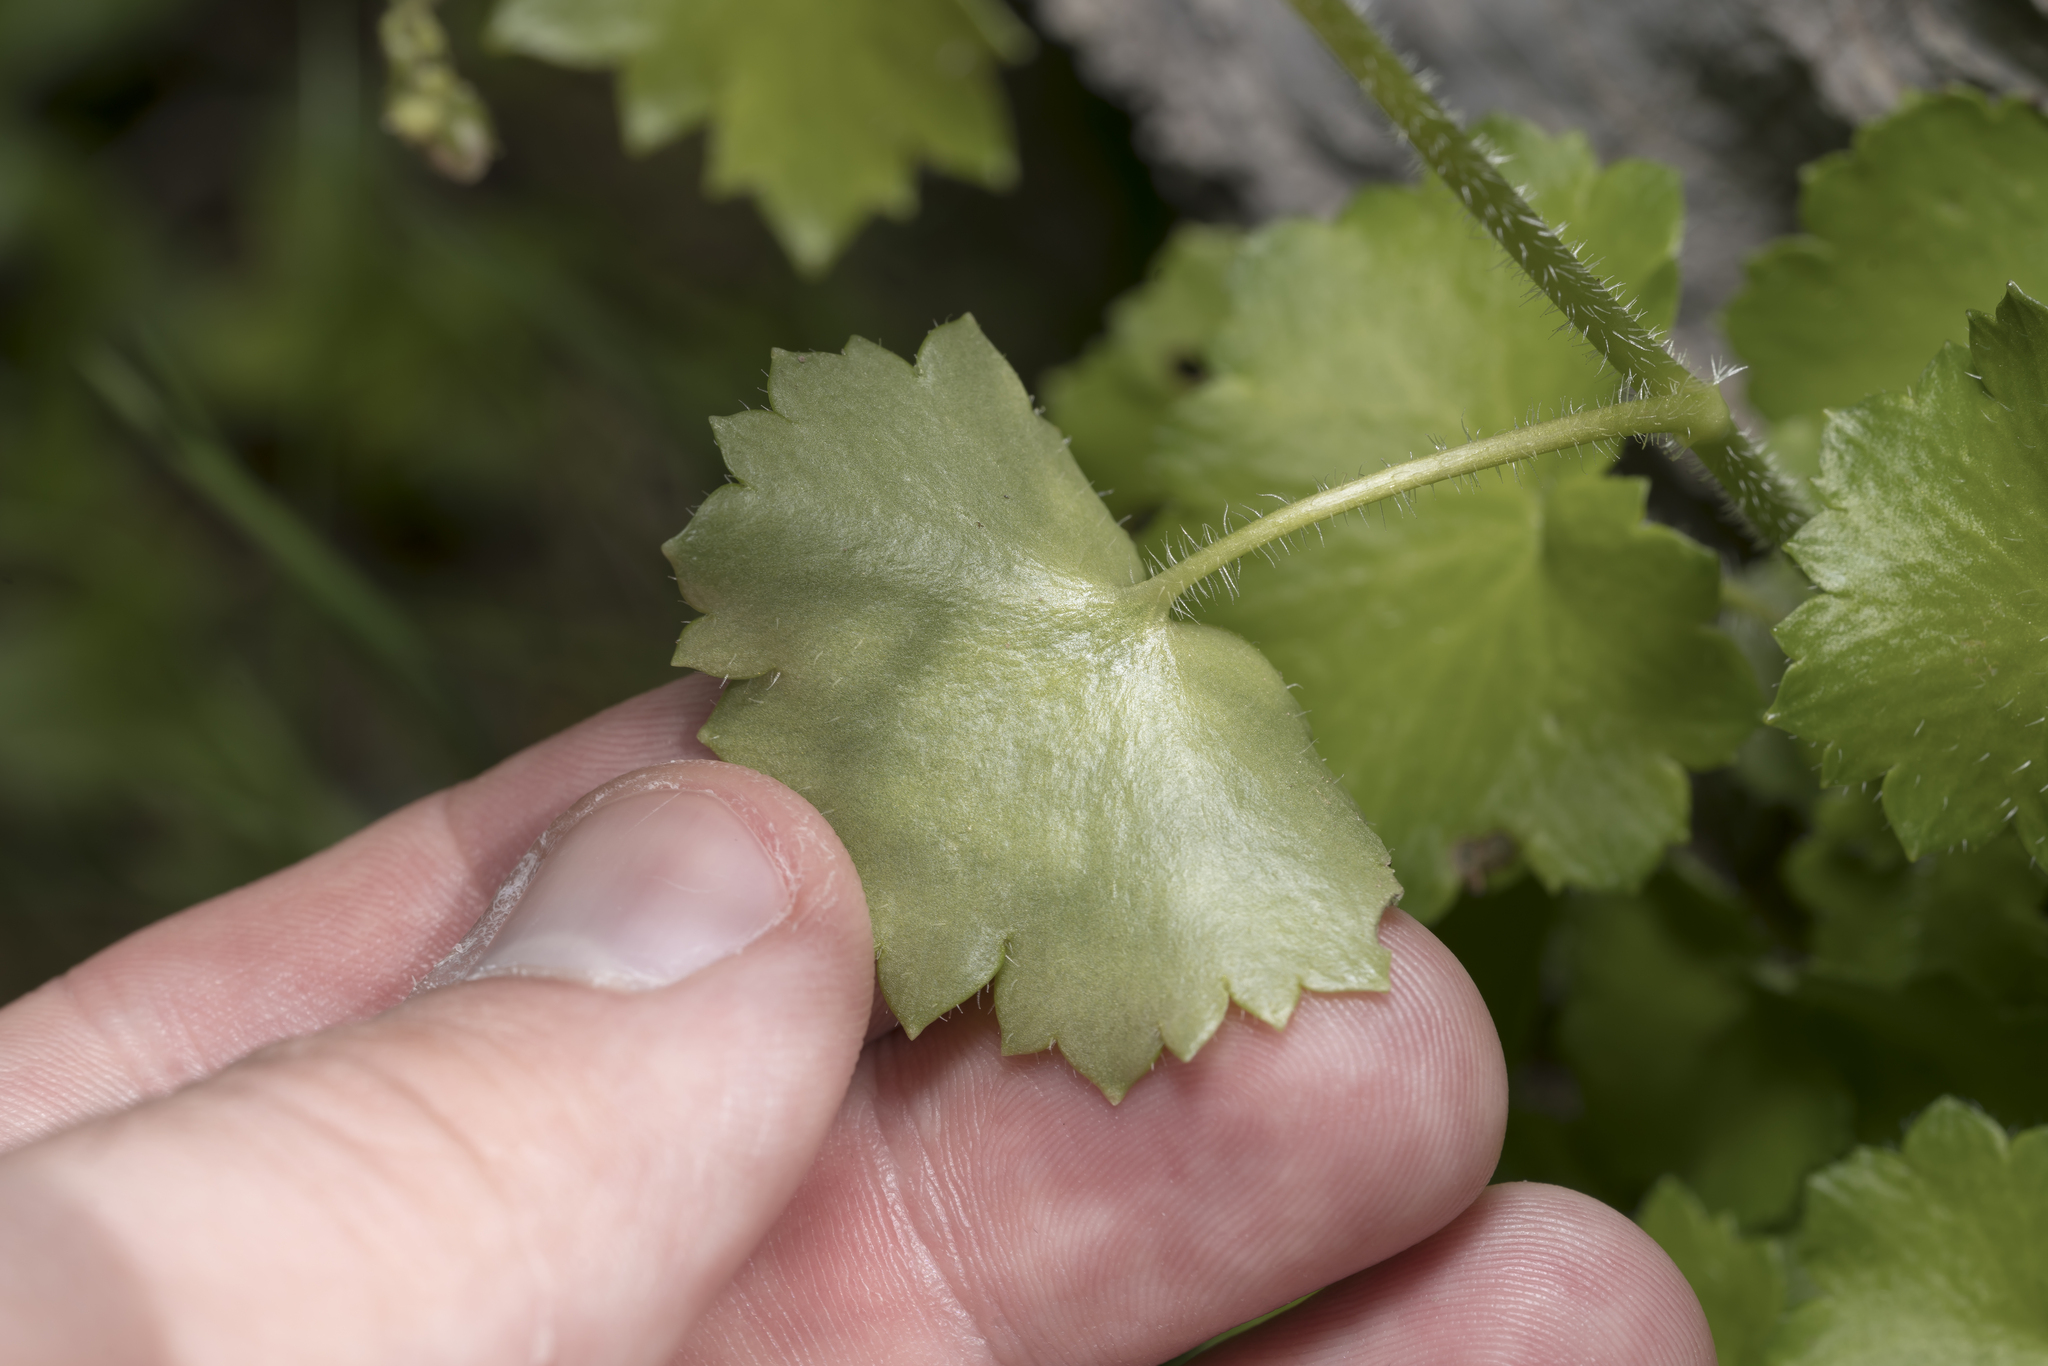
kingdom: Plantae
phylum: Tracheophyta
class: Magnoliopsida
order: Saxifragales
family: Saxifragaceae
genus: Saxifraga
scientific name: Saxifraga rotundifolia
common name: Round-leaved saxifrage
